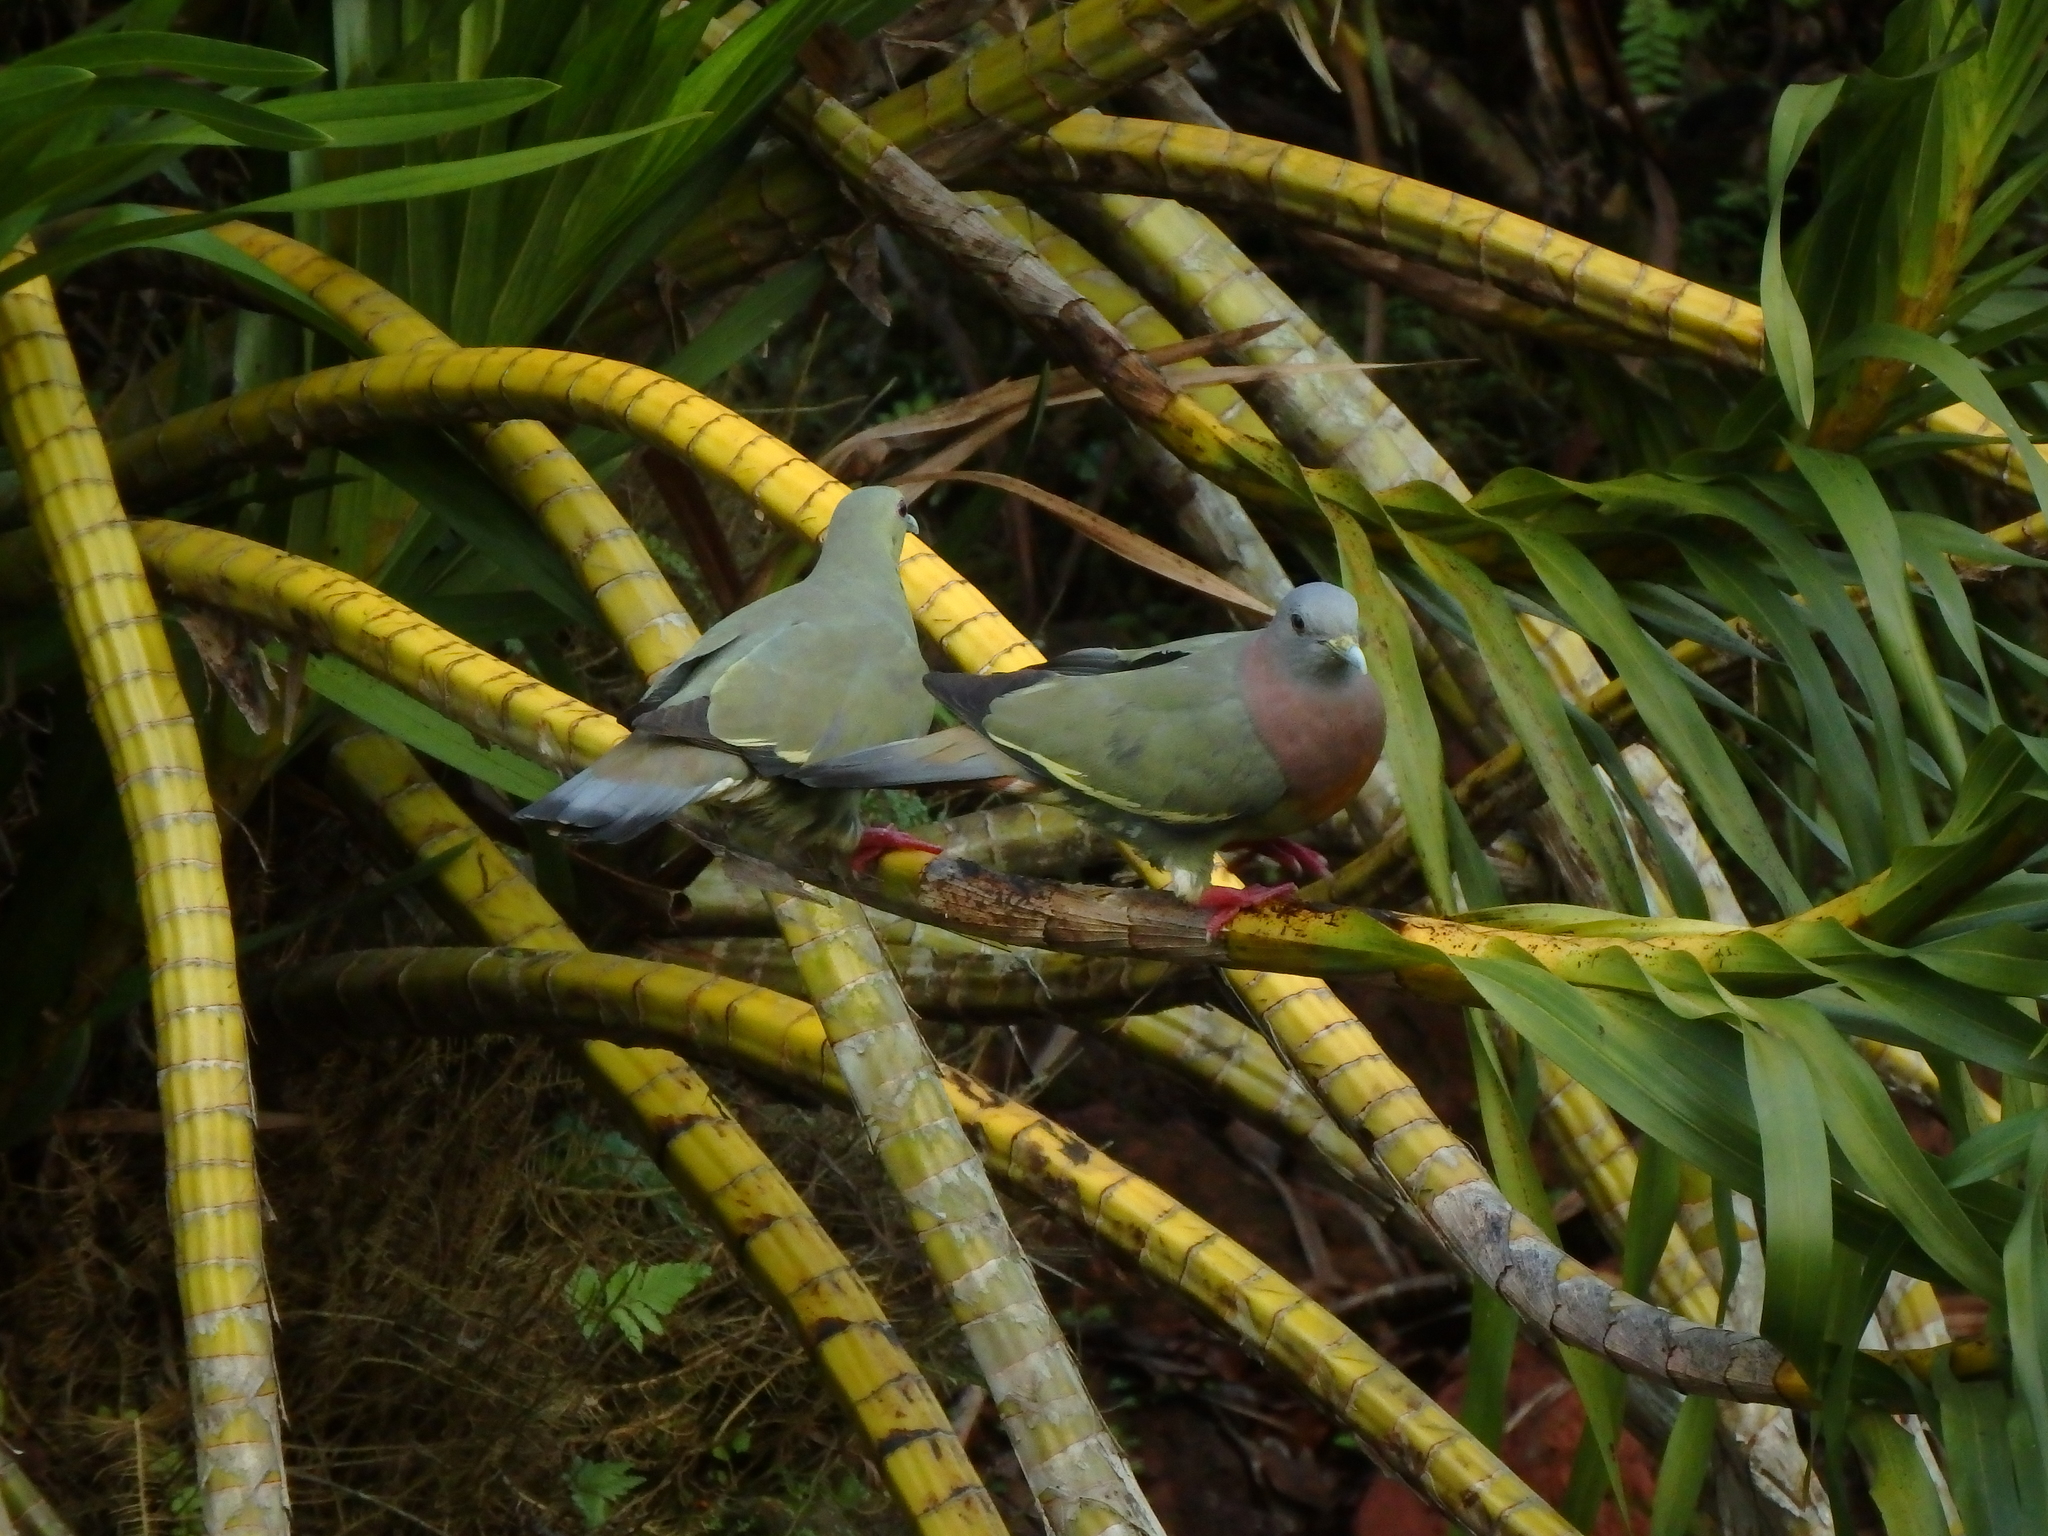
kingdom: Animalia
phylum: Chordata
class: Aves
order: Columbiformes
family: Columbidae
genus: Treron
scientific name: Treron vernans
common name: Pink-necked green pigeon
